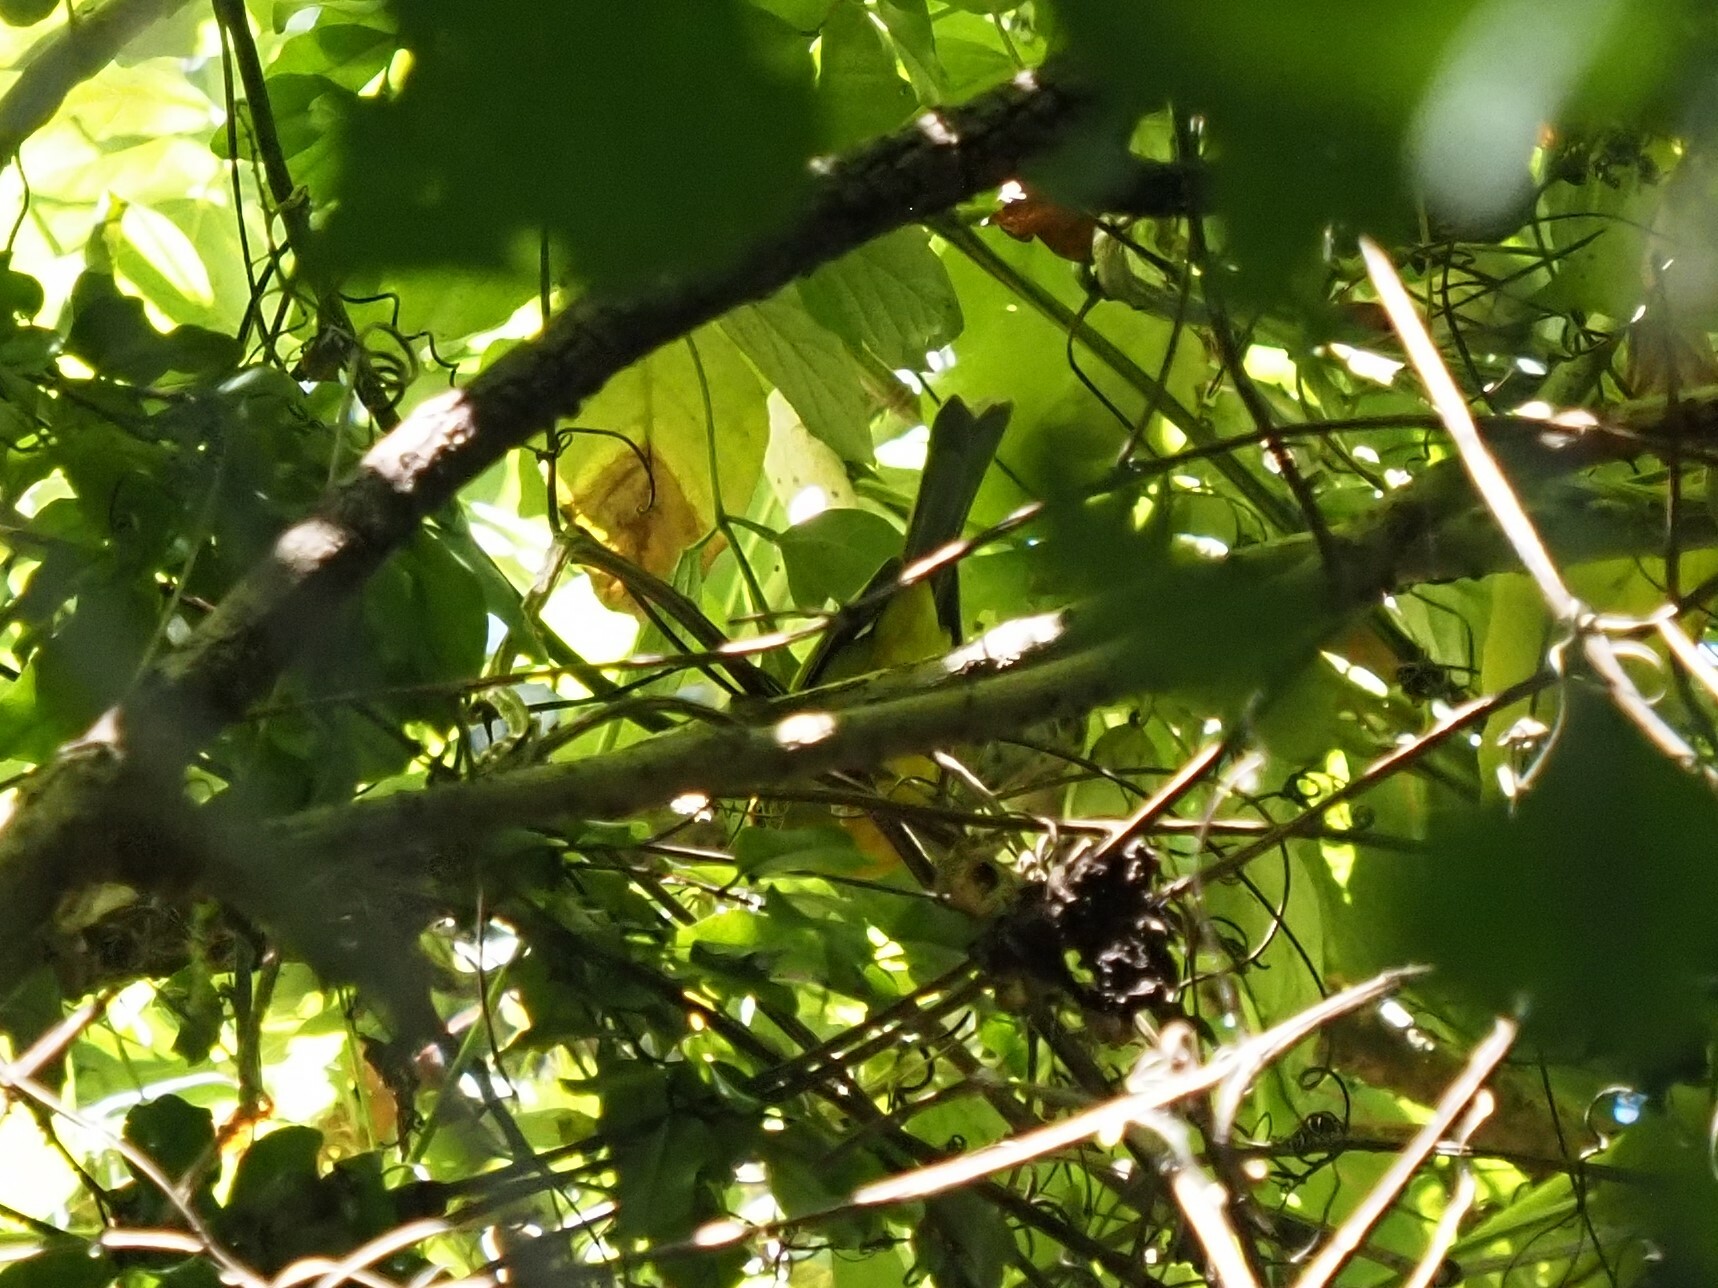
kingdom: Animalia
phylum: Chordata
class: Aves
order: Passeriformes
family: Parulidae
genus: Basileuterus
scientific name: Basileuterus belli
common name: Golden-browed warbler
